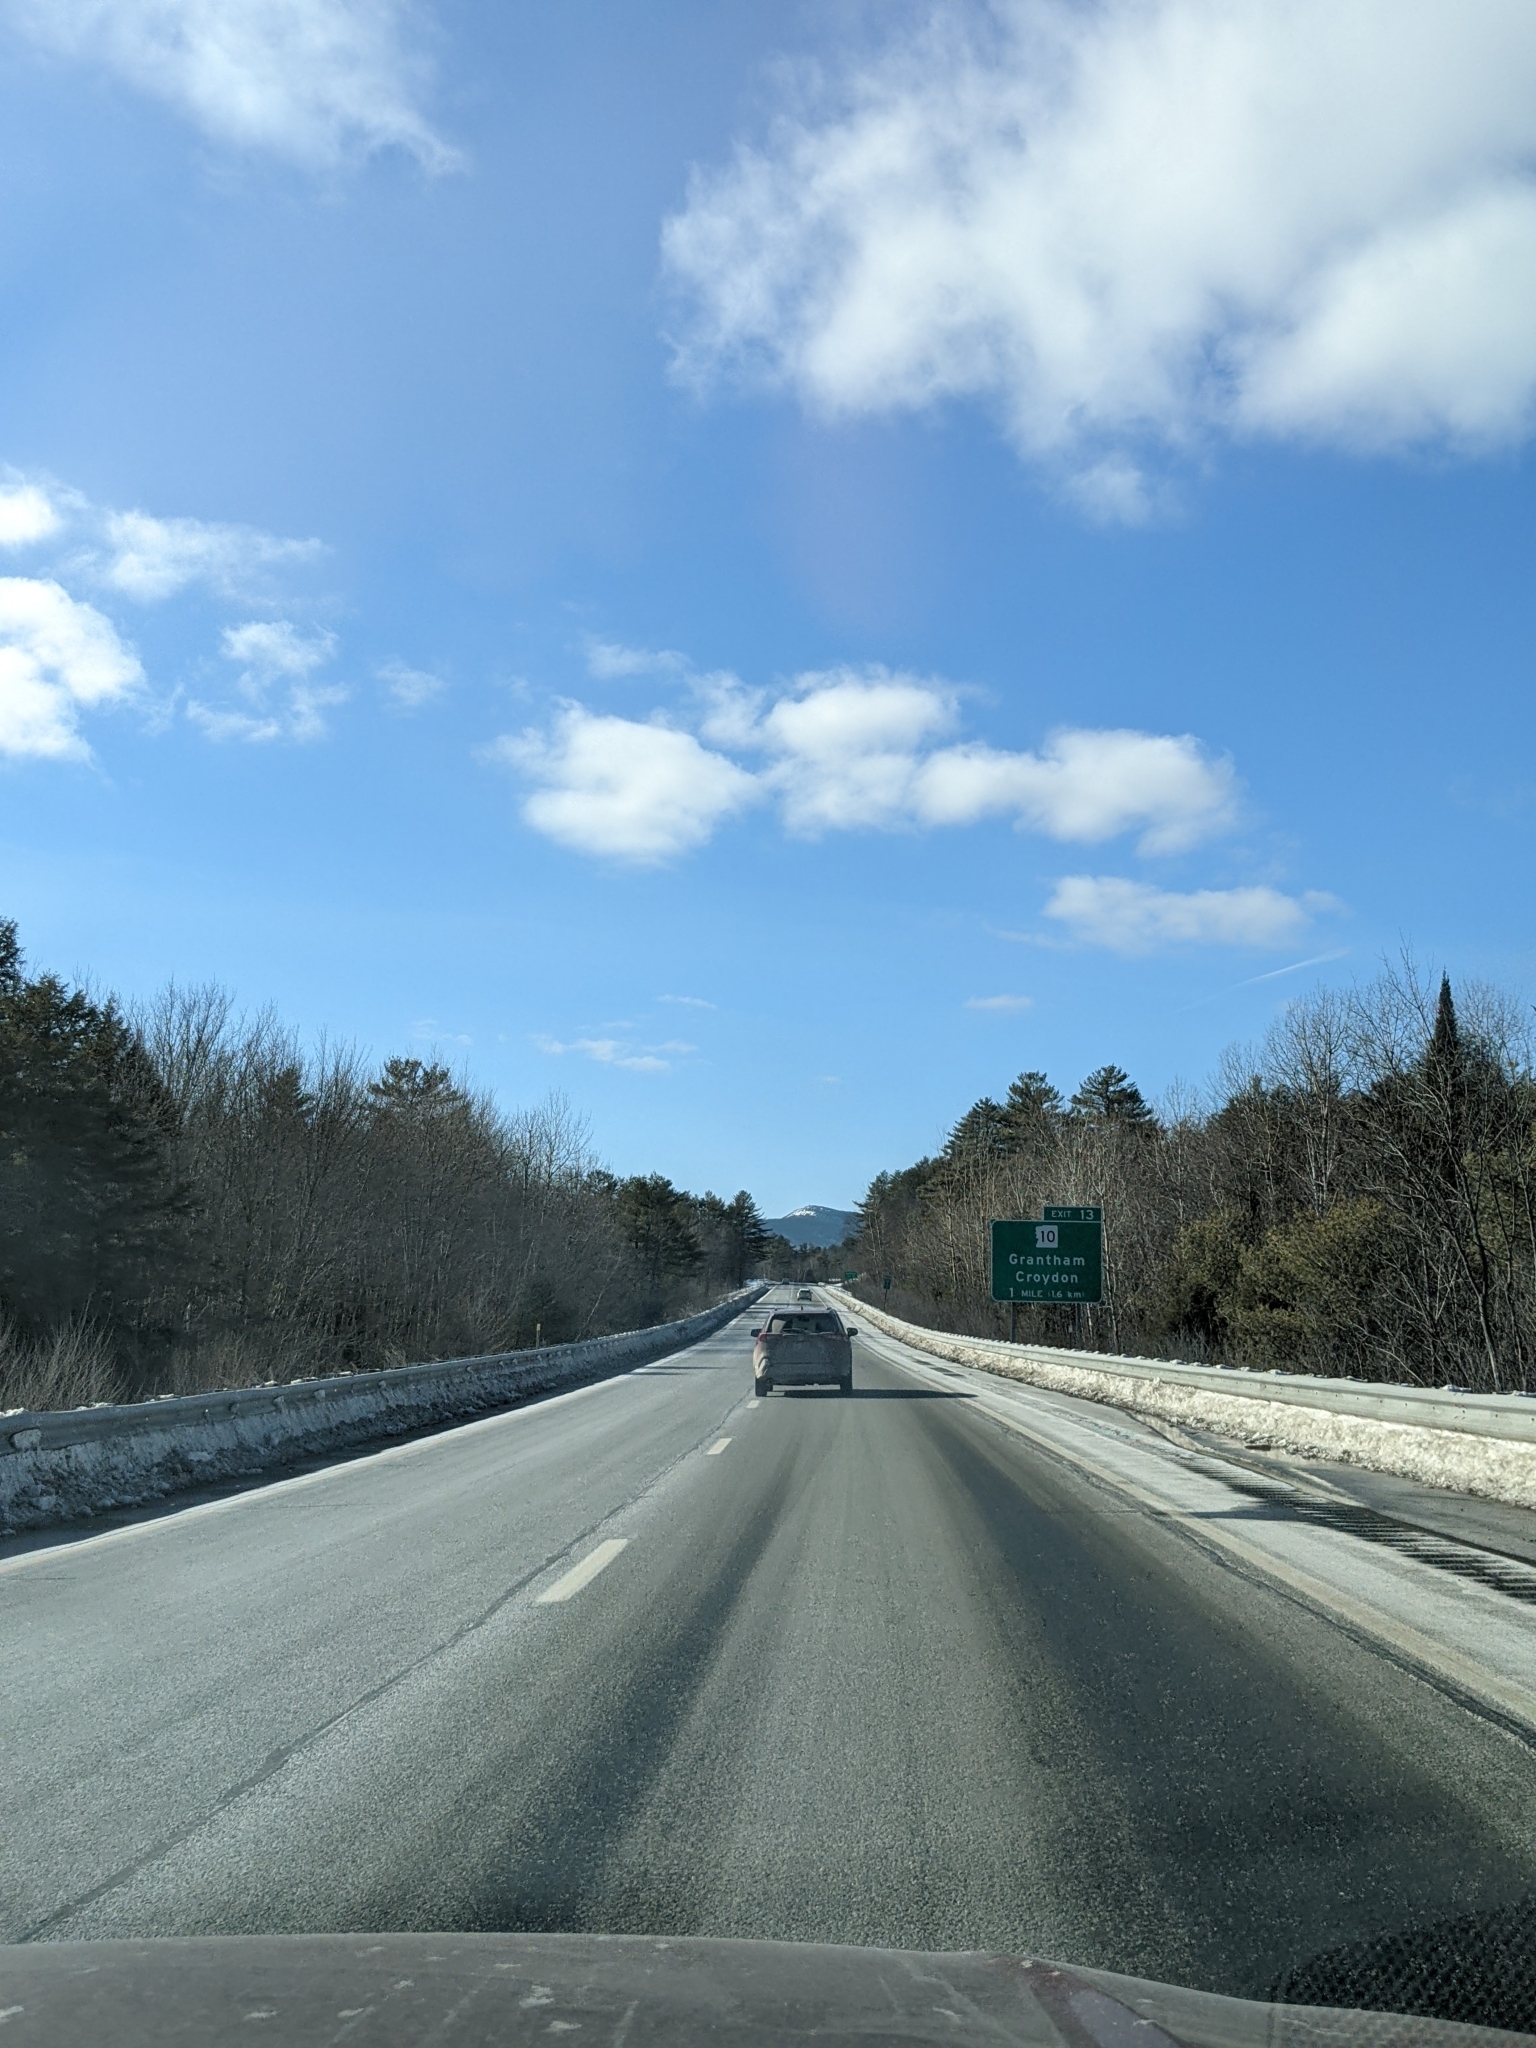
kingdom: Plantae
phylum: Tracheophyta
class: Pinopsida
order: Pinales
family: Pinaceae
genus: Pinus
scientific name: Pinus strobus
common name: Weymouth pine
